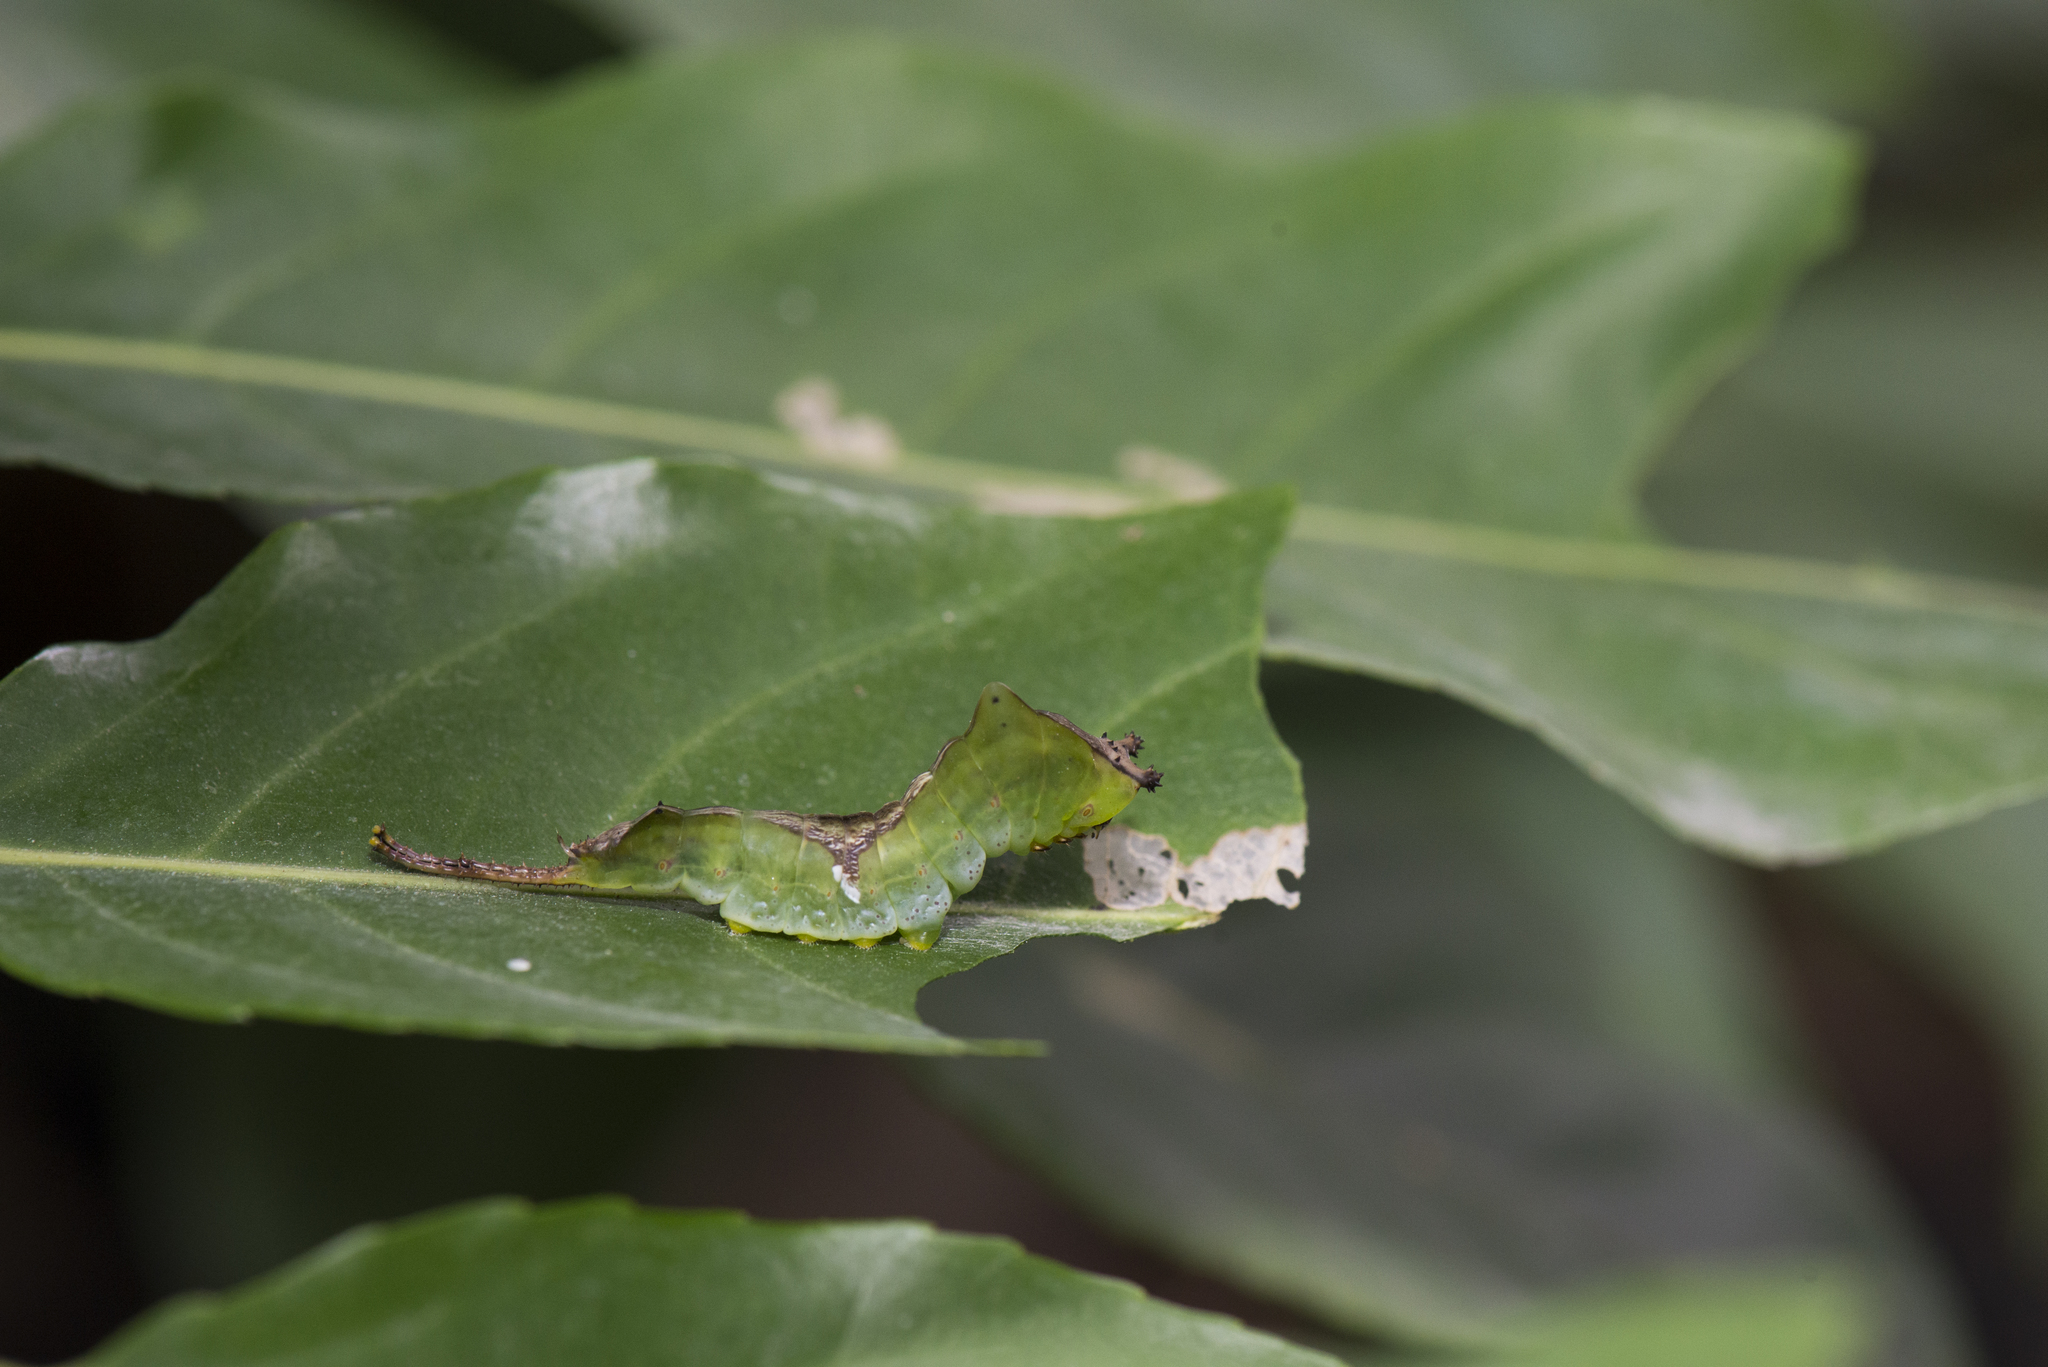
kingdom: Animalia
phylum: Arthropoda
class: Insecta
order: Lepidoptera
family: Notodontidae
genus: Neocerura
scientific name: Neocerura liturata
